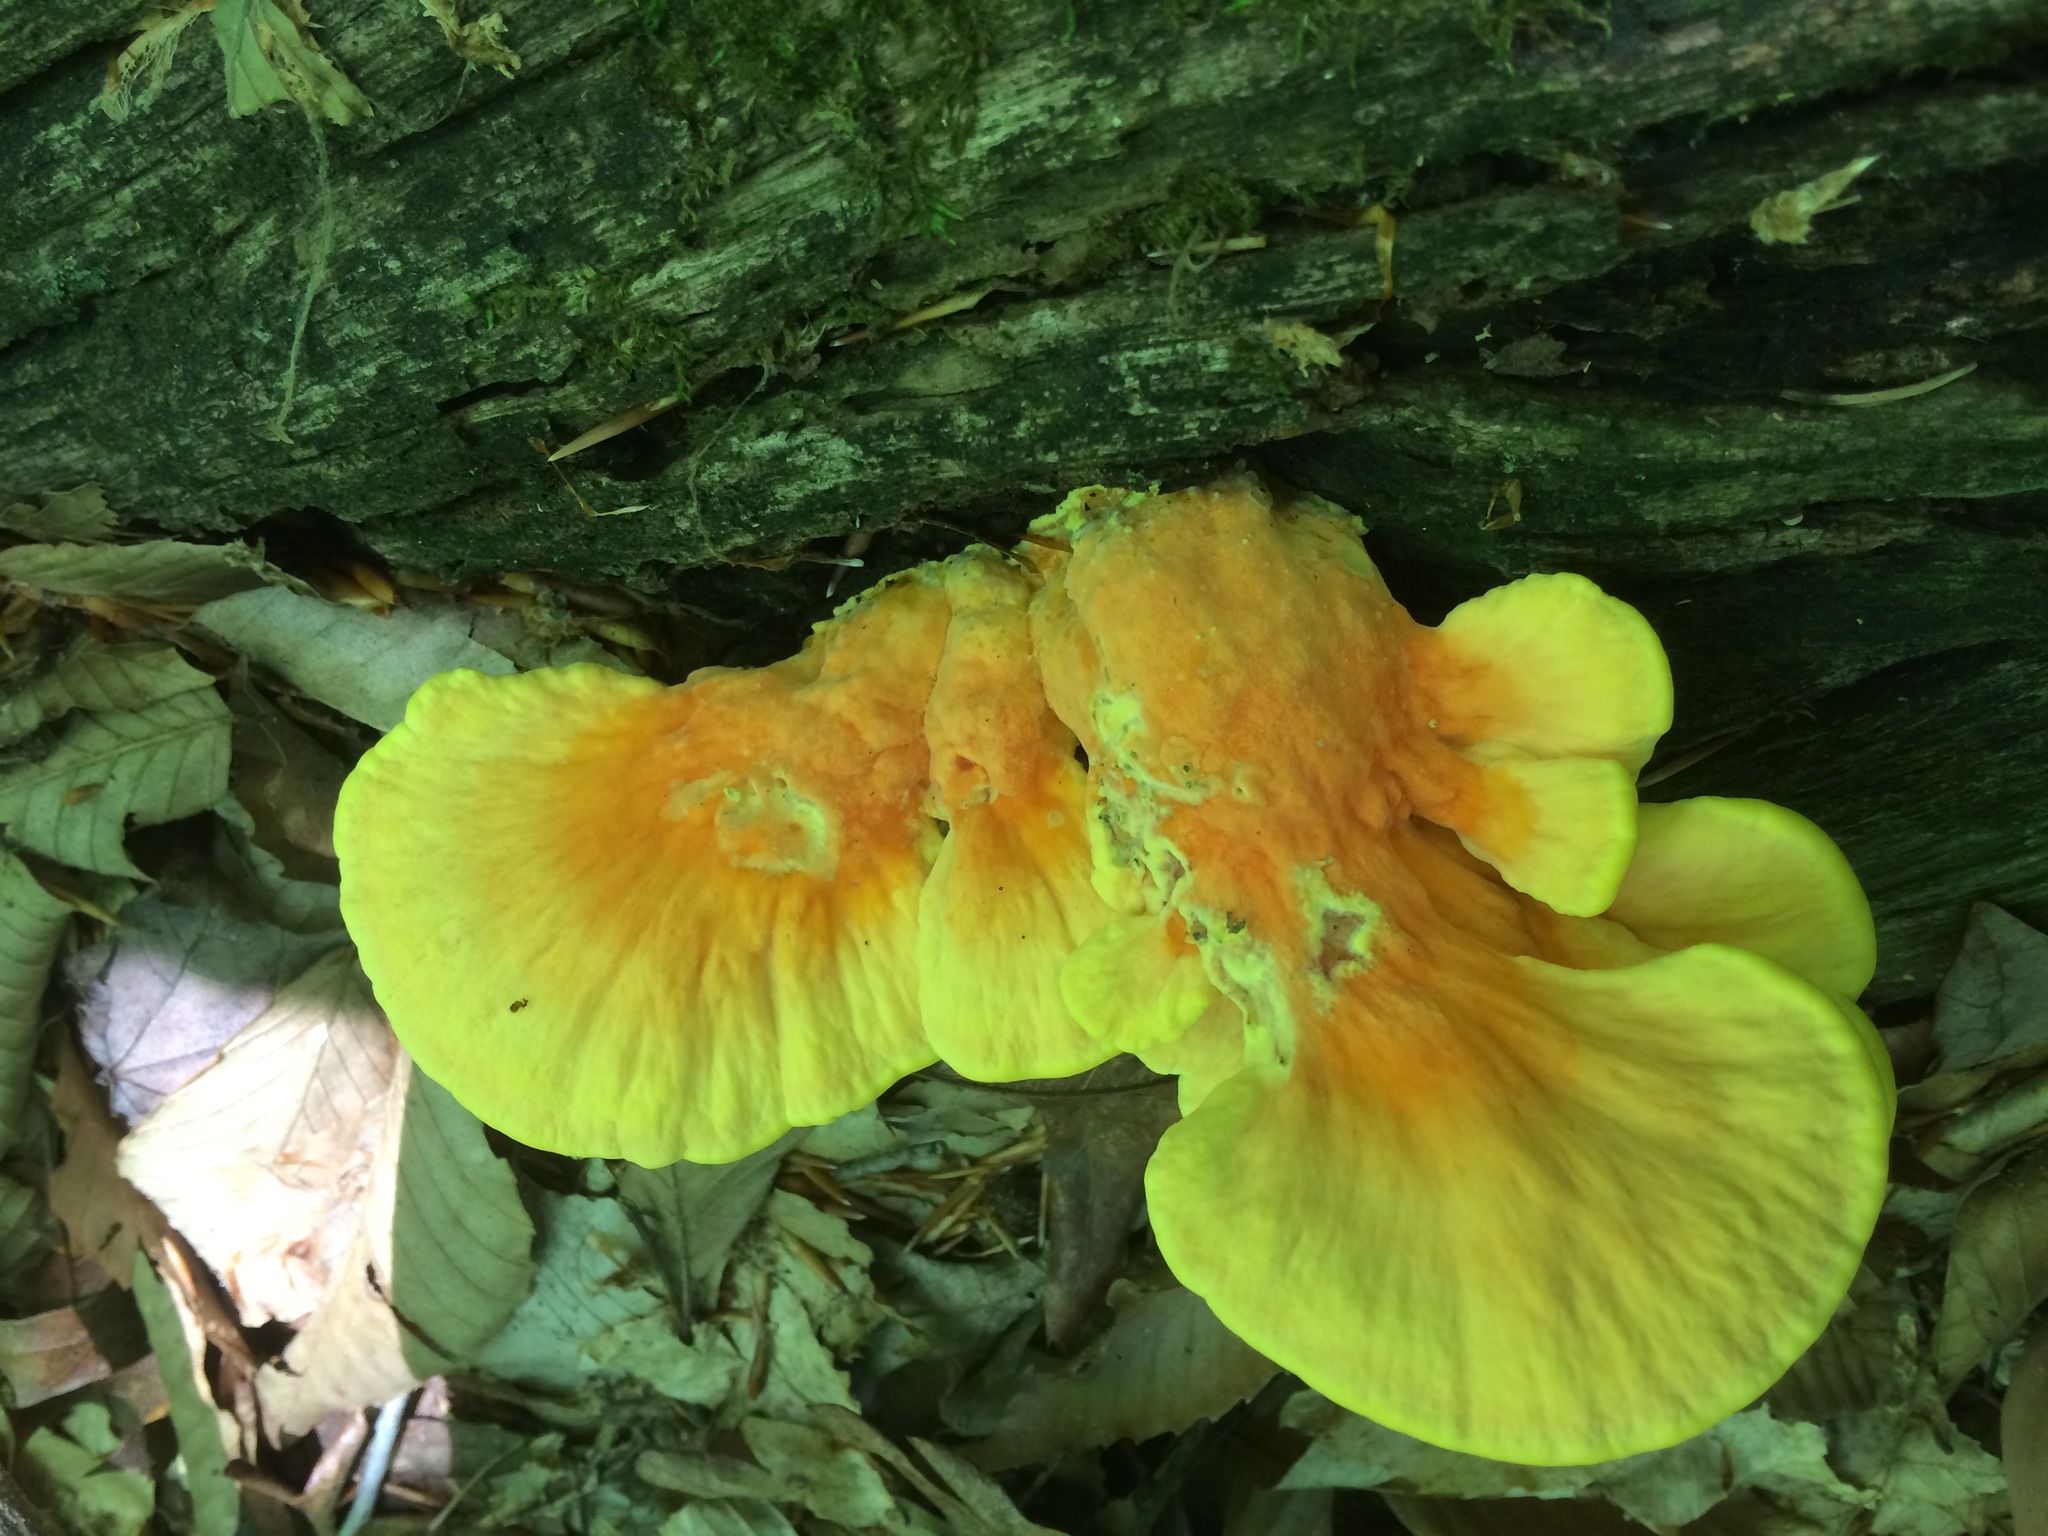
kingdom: Fungi
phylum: Basidiomycota
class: Agaricomycetes
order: Polyporales
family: Laetiporaceae
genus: Laetiporus
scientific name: Laetiporus sulphureus
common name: Chicken of the woods
